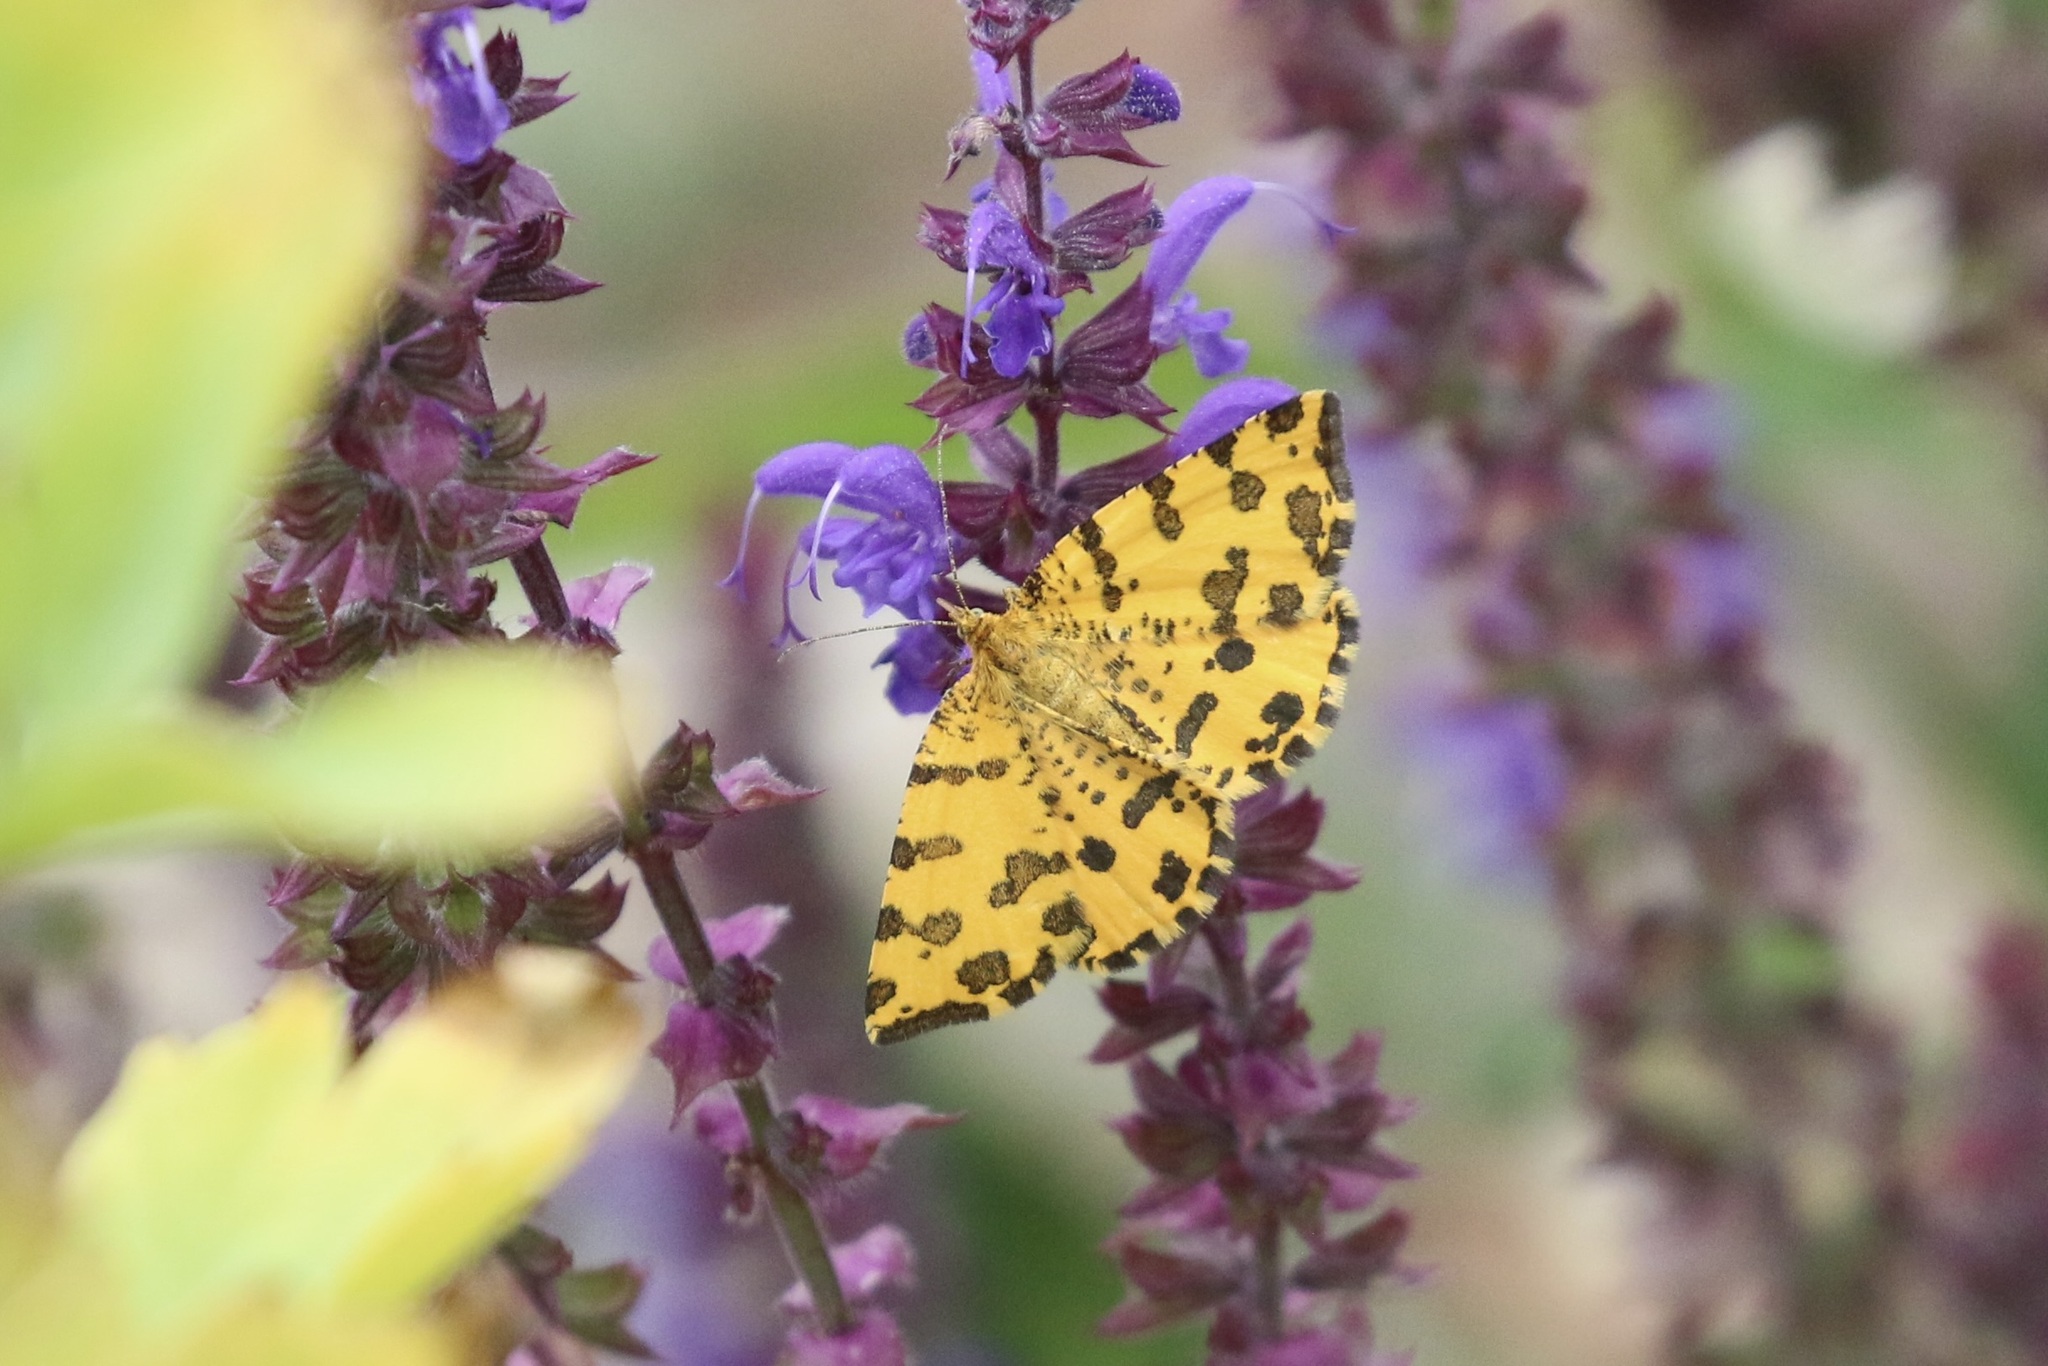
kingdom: Animalia
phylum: Arthropoda
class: Insecta
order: Lepidoptera
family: Geometridae
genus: Pseudopanthera
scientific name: Pseudopanthera macularia
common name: Speckled yellow
